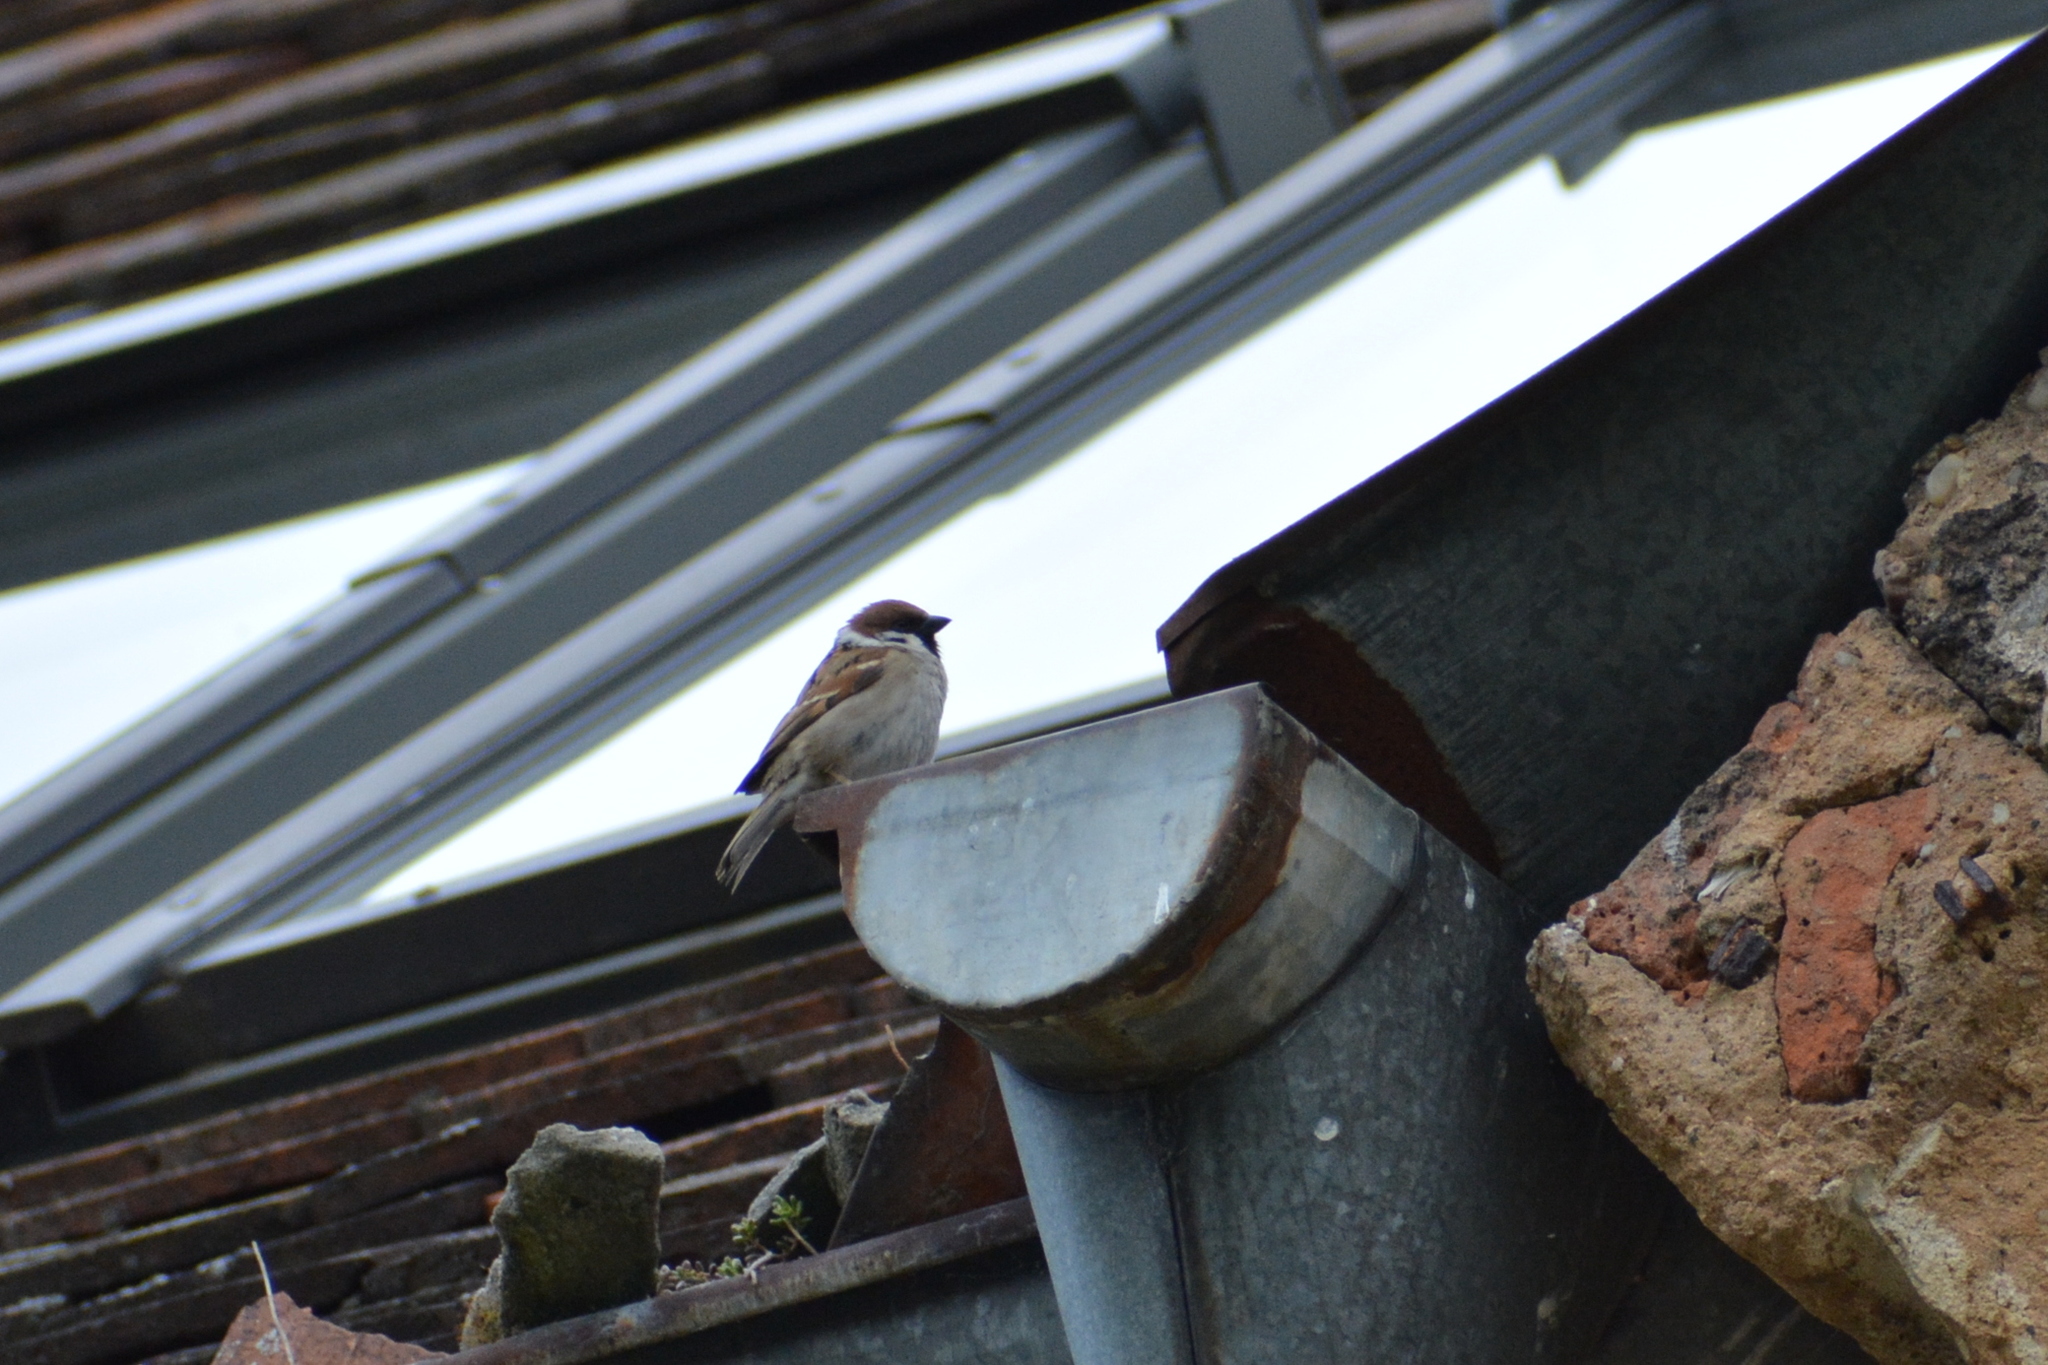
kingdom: Animalia
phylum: Chordata
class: Aves
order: Passeriformes
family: Passeridae
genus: Passer
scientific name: Passer montanus
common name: Eurasian tree sparrow
